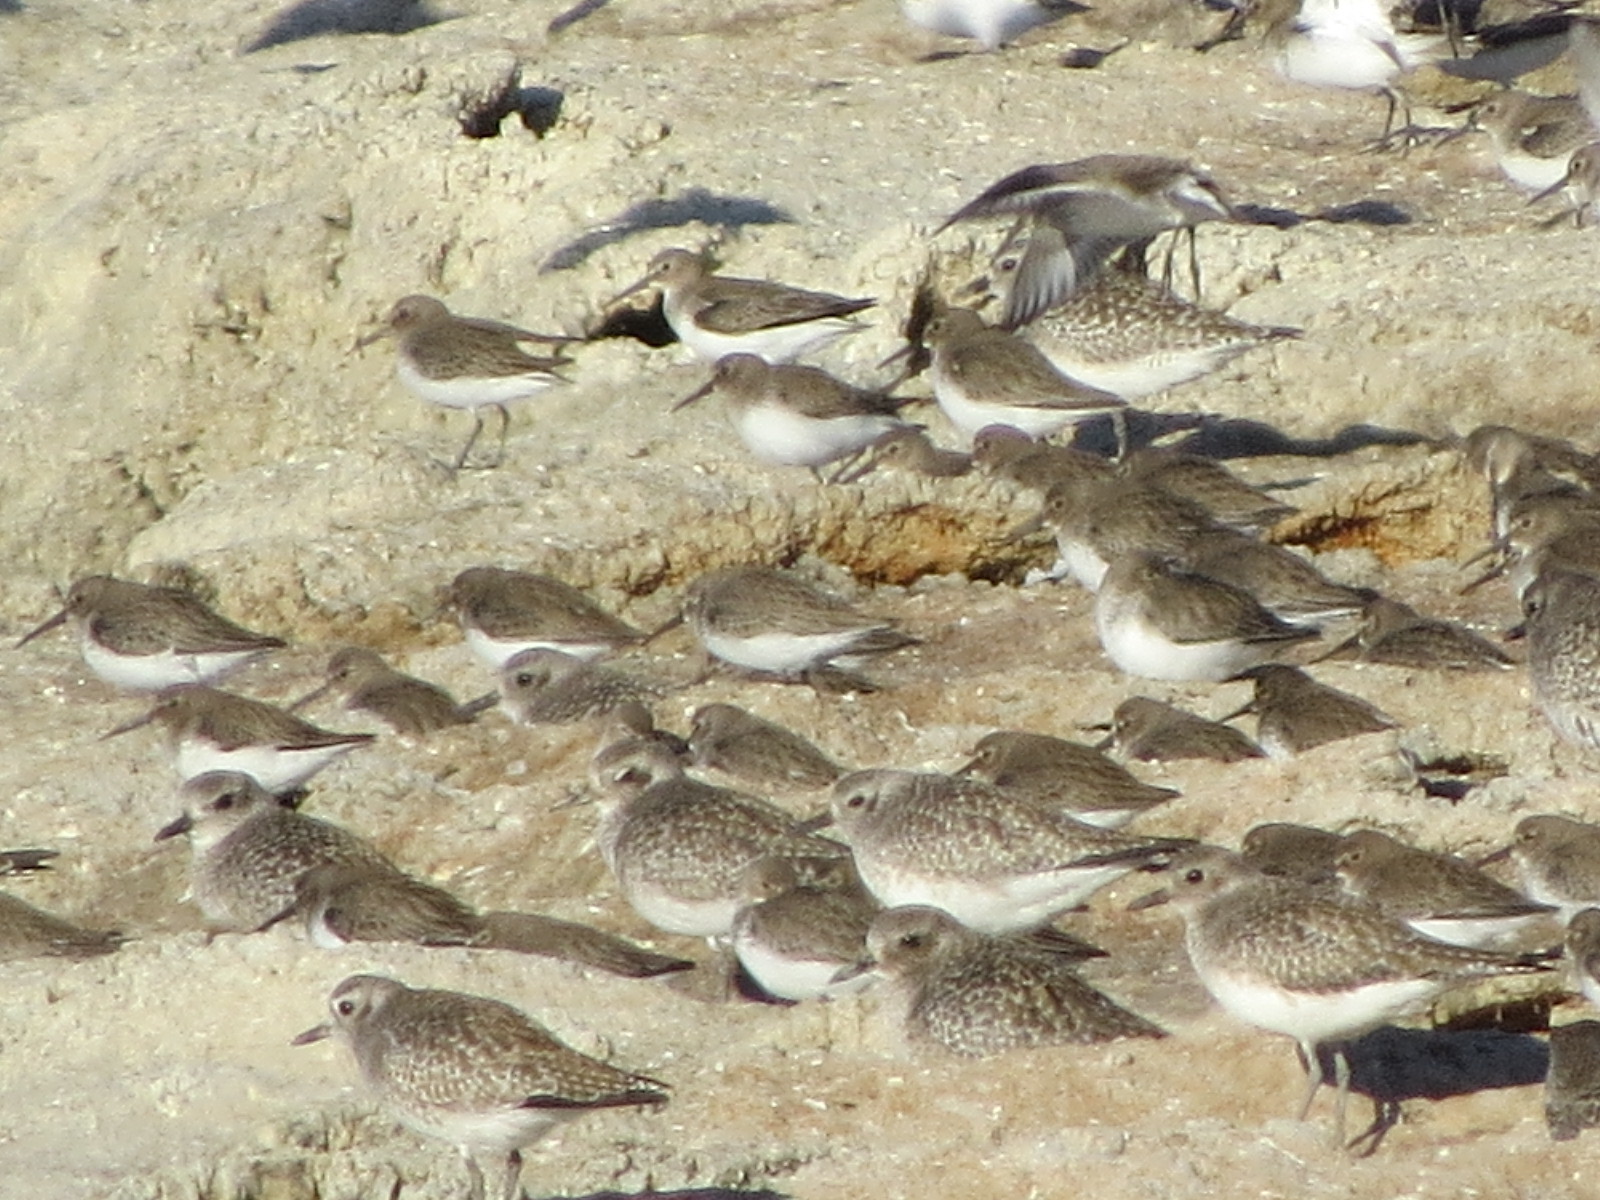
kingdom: Animalia
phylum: Chordata
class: Aves
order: Charadriiformes
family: Charadriidae
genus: Pluvialis
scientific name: Pluvialis squatarola
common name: Grey plover
